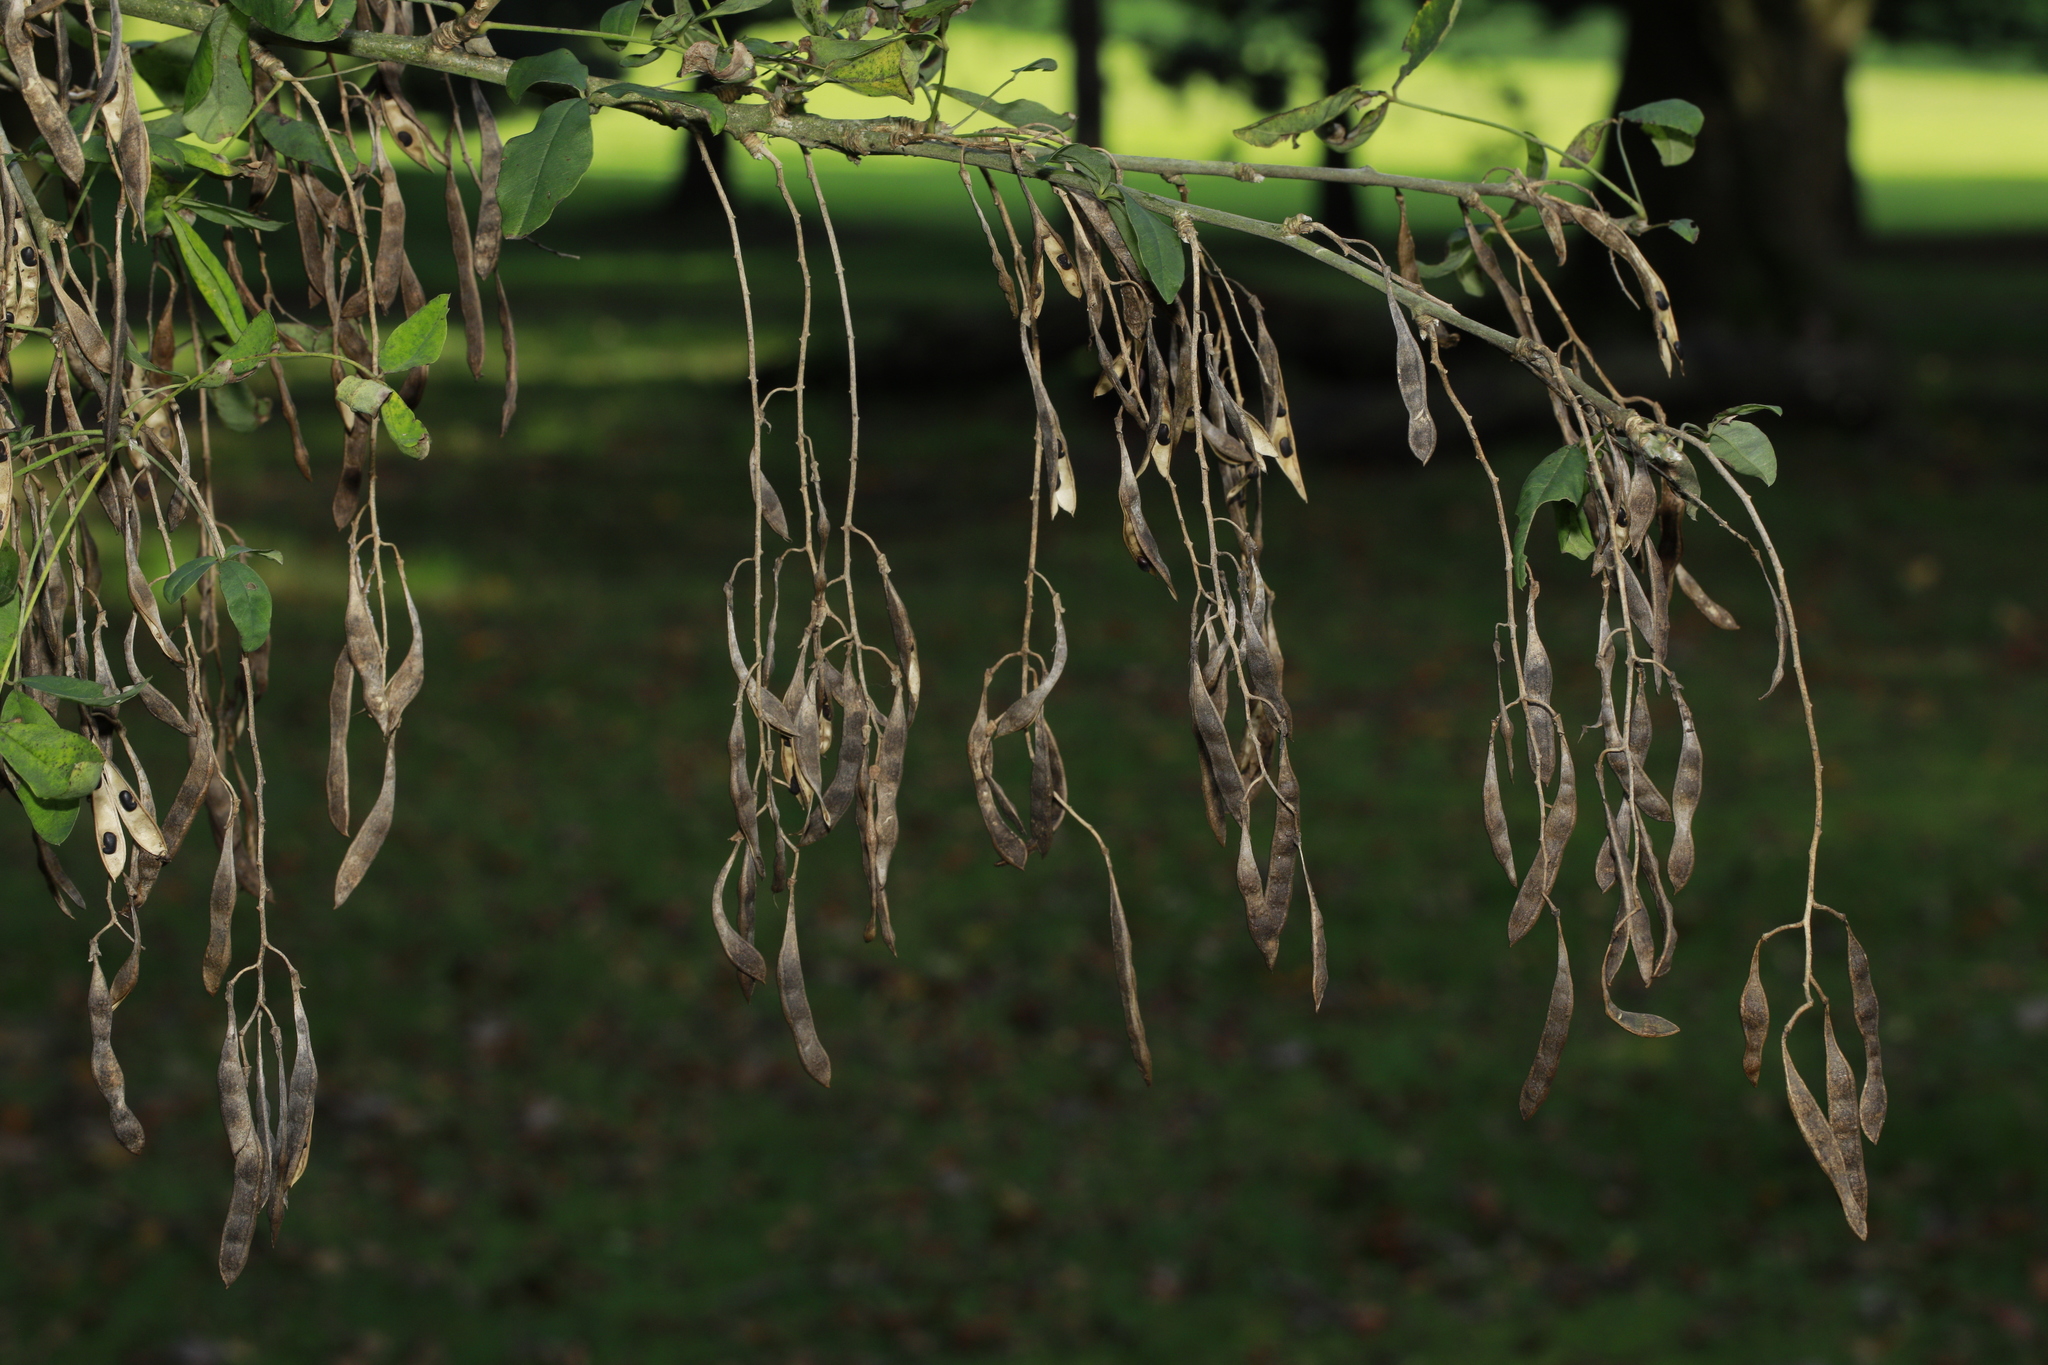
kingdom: Plantae
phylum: Tracheophyta
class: Magnoliopsida
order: Fabales
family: Fabaceae
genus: Laburnum
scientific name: Laburnum anagyroides
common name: Laburnum
